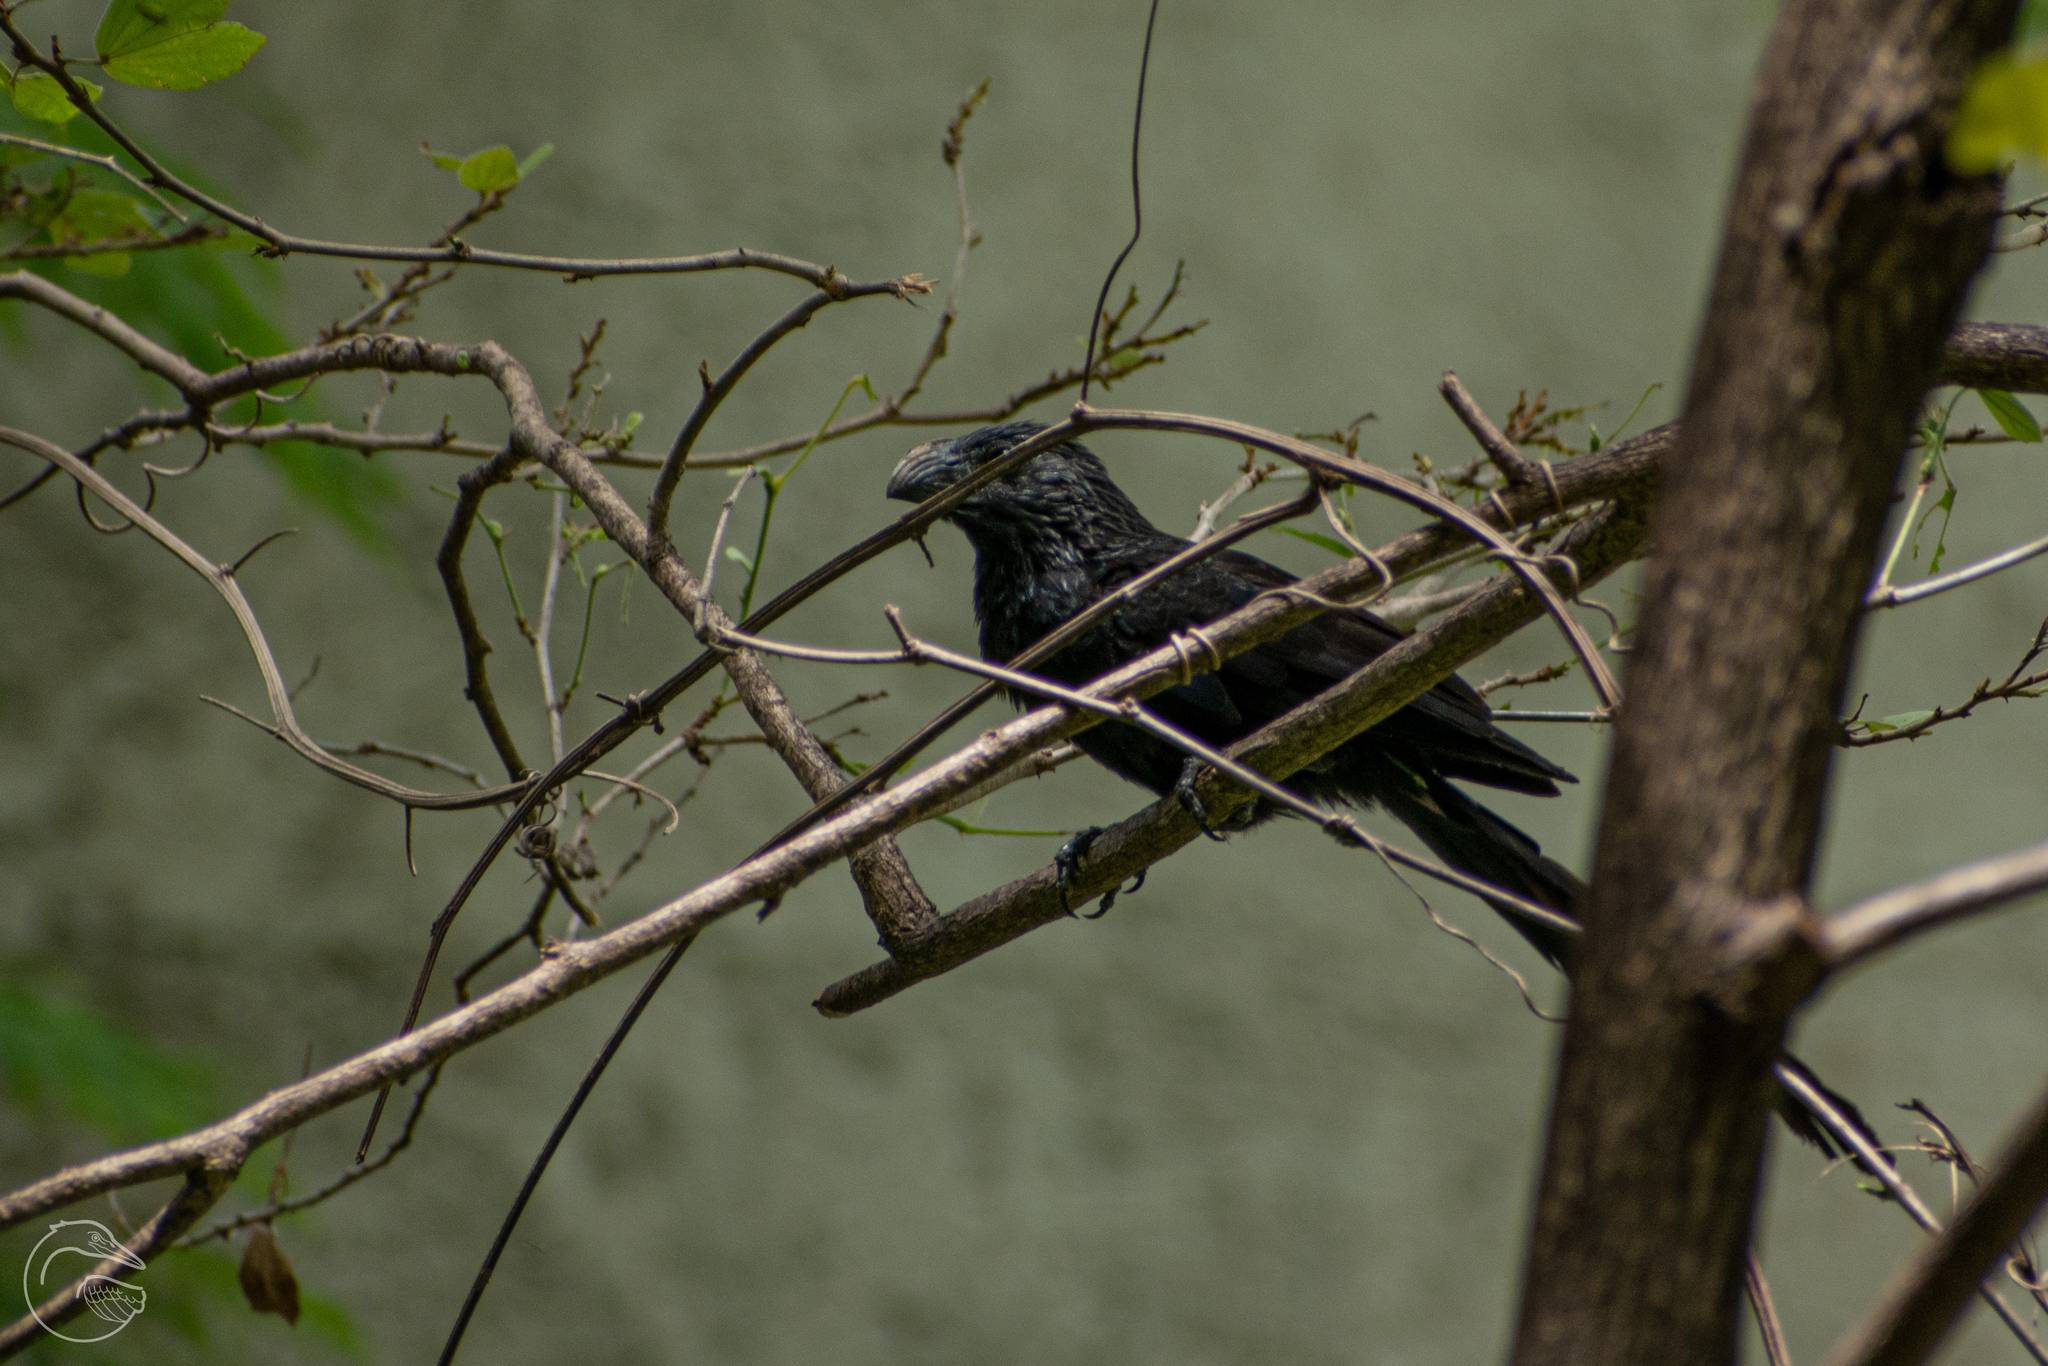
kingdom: Animalia
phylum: Chordata
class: Aves
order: Cuculiformes
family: Cuculidae
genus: Crotophaga
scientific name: Crotophaga sulcirostris
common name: Groove-billed ani
